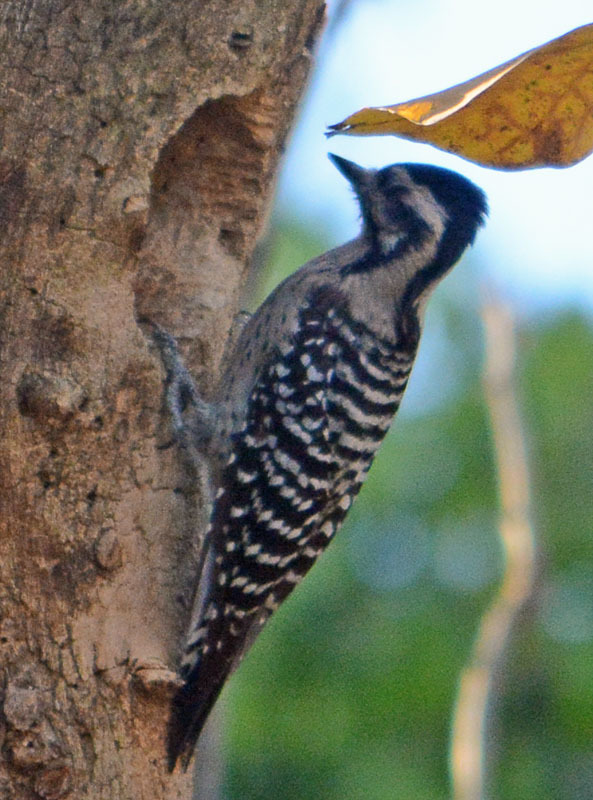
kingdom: Animalia
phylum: Chordata
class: Aves
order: Piciformes
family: Picidae
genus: Dryobates
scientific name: Dryobates scalaris
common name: Ladder-backed woodpecker
